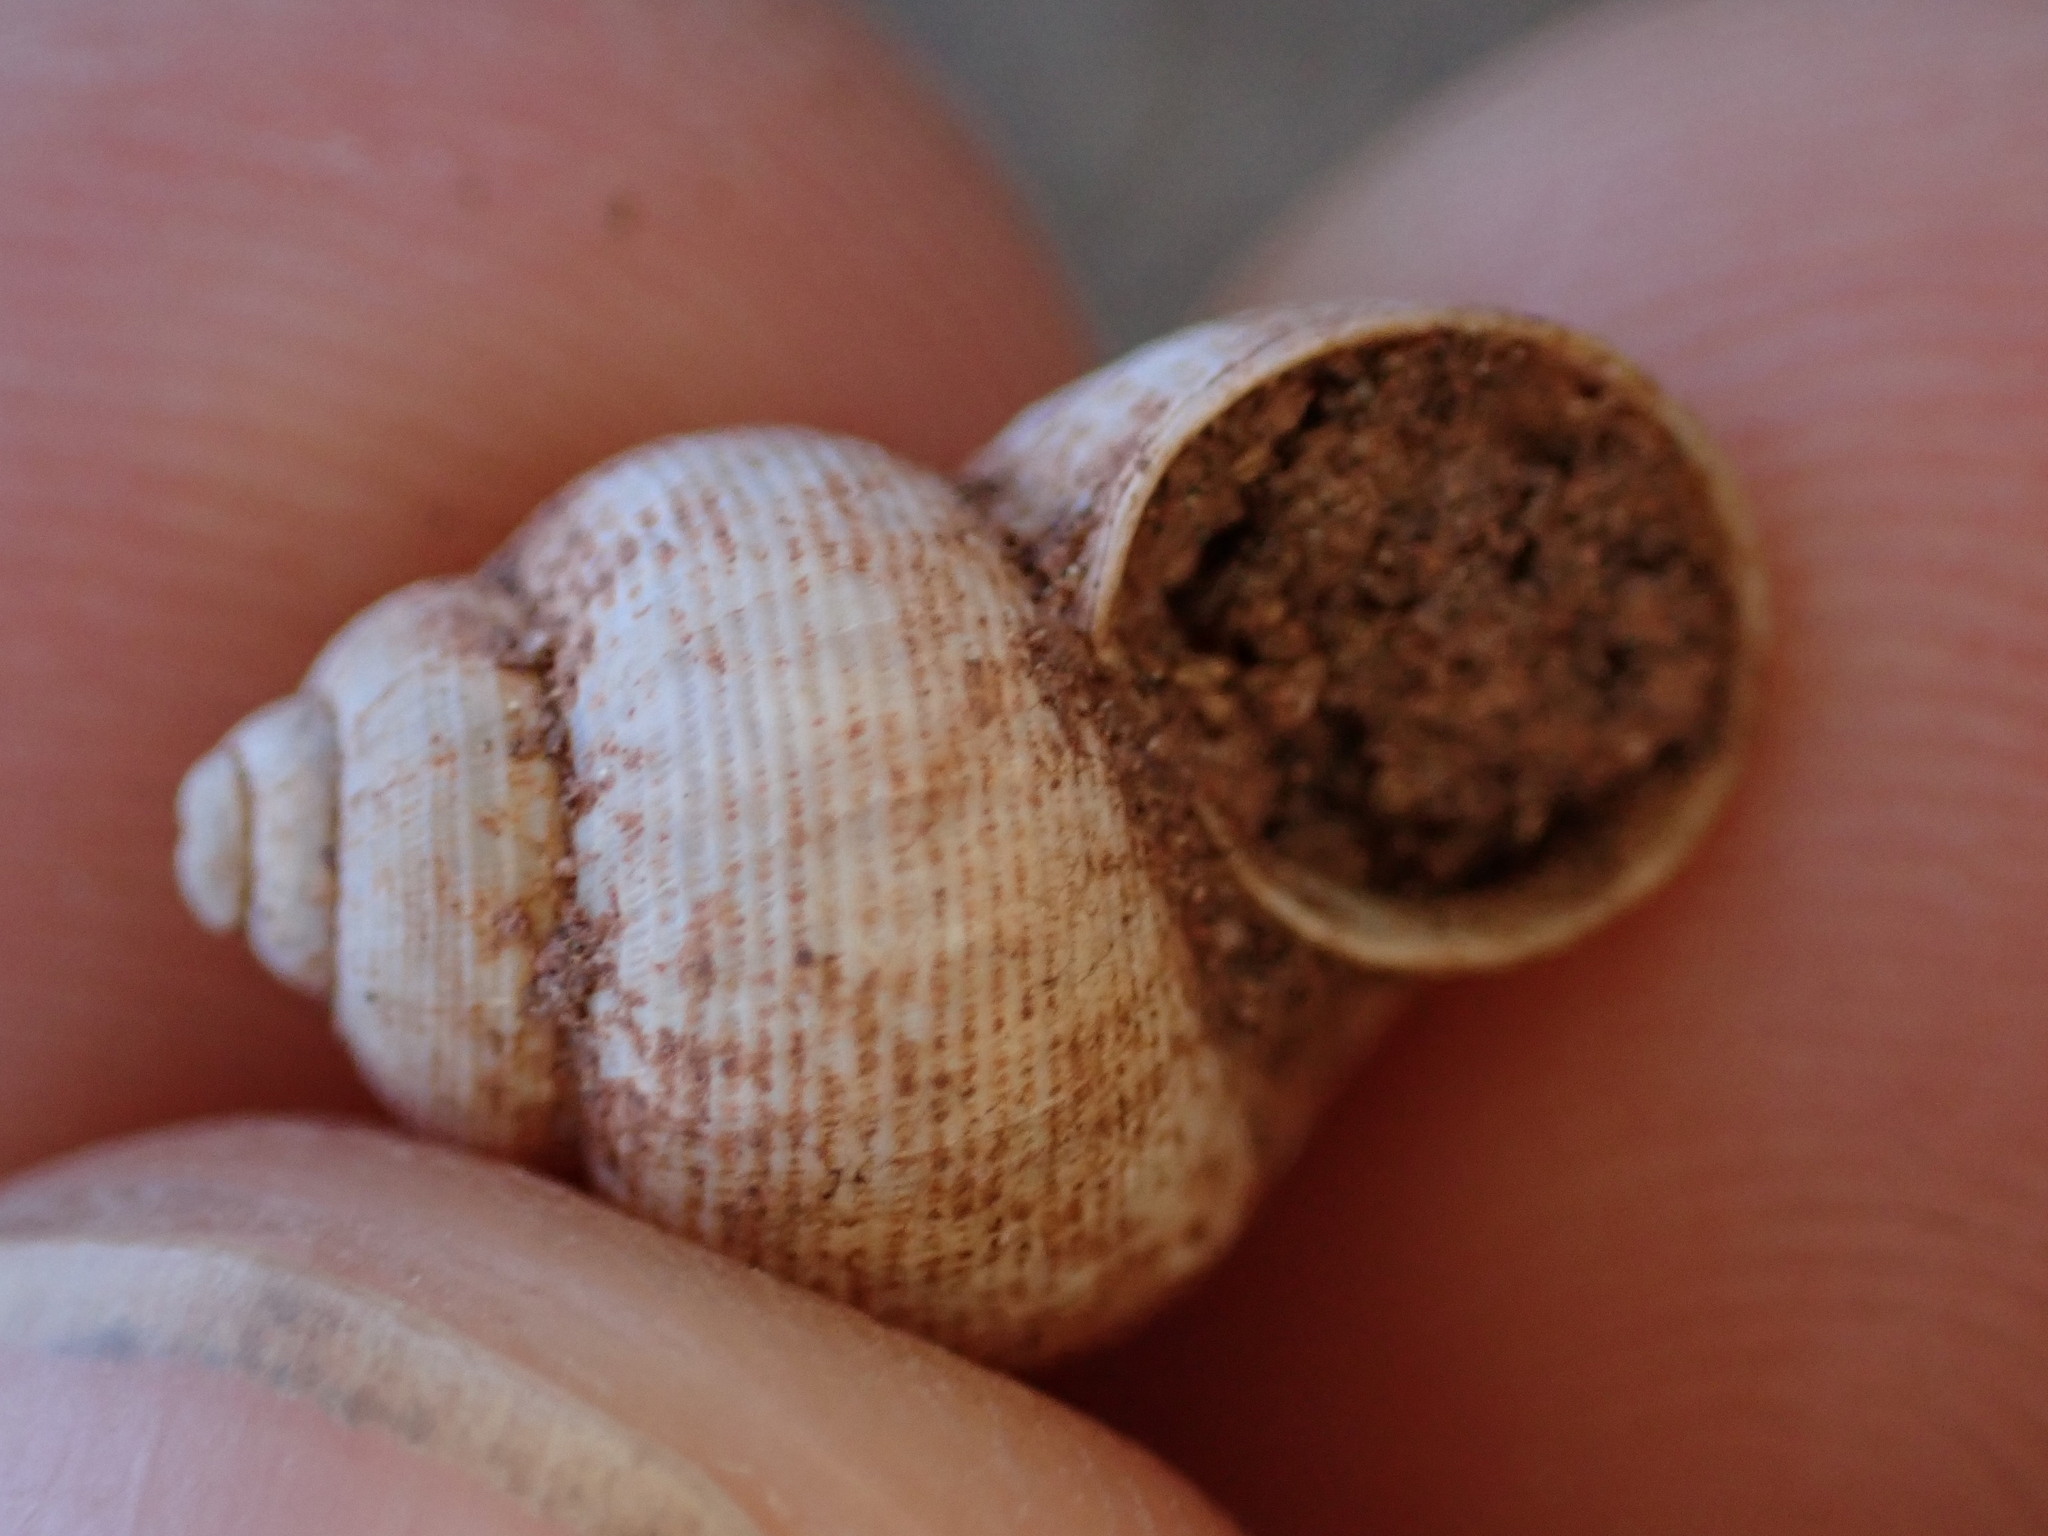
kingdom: Animalia
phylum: Mollusca
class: Gastropoda
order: Littorinimorpha
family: Pomatiidae
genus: Pomatias
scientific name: Pomatias elegans
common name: Red-mouthed snail
